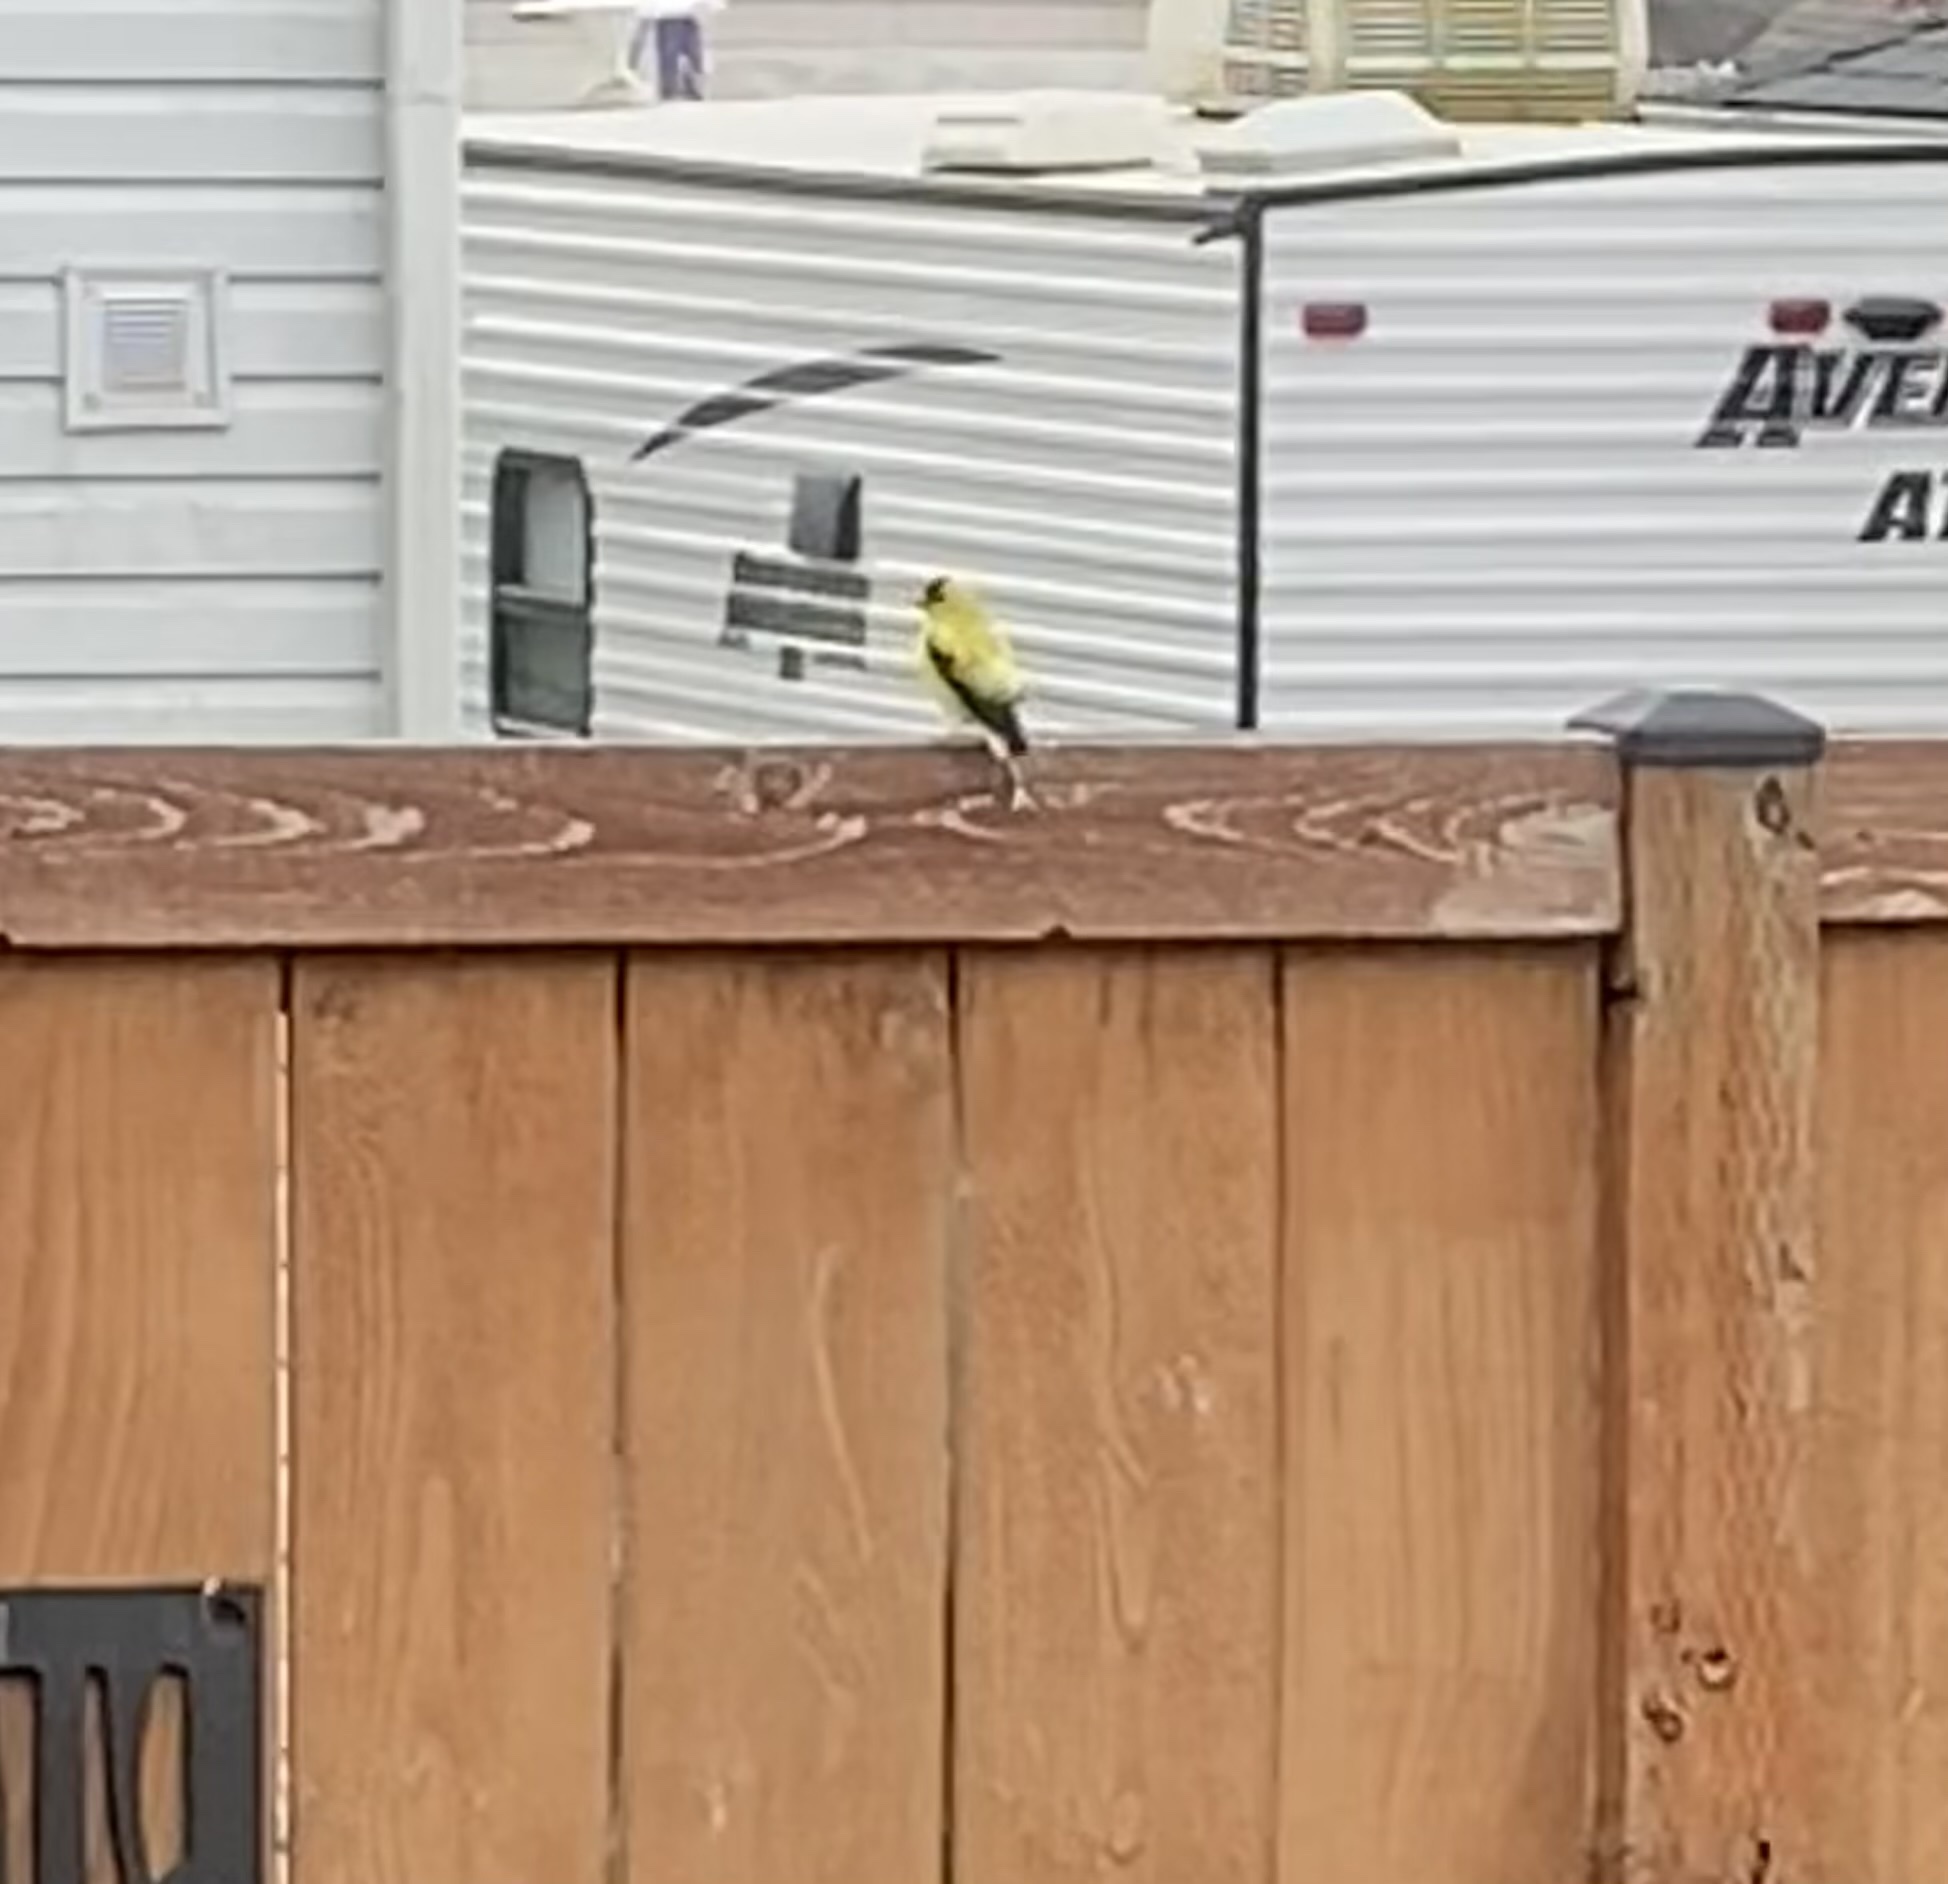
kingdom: Animalia
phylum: Chordata
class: Aves
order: Passeriformes
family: Fringillidae
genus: Spinus
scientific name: Spinus tristis
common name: American goldfinch
